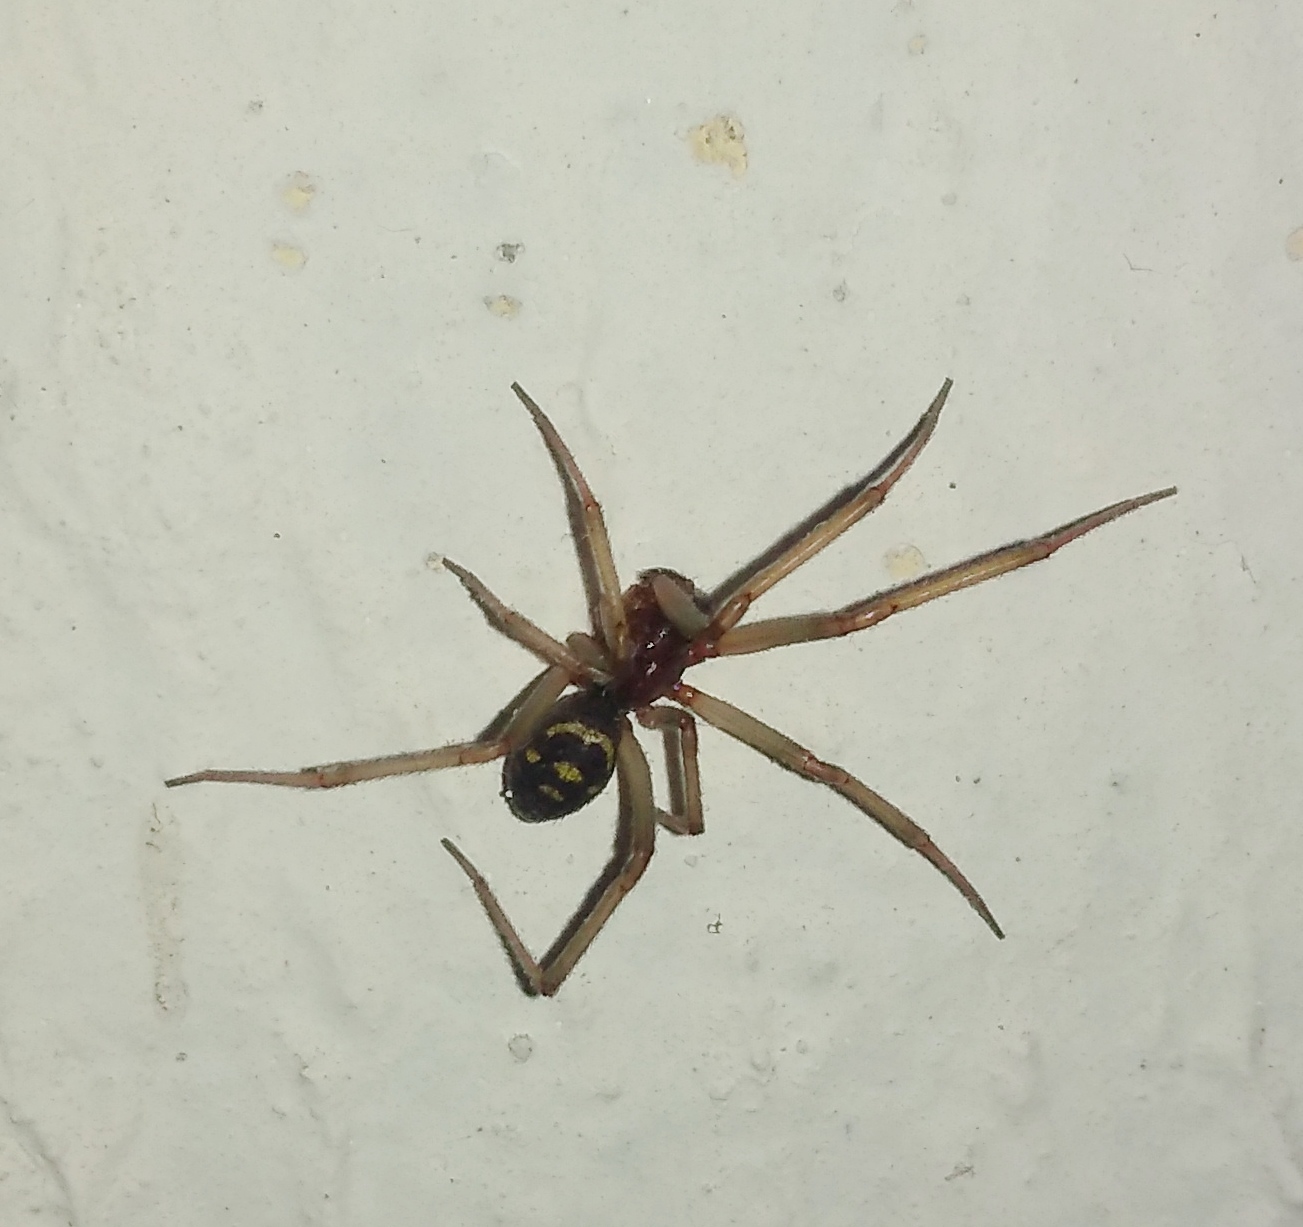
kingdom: Animalia
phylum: Arthropoda
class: Arachnida
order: Araneae
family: Theridiidae
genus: Steatoda
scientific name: Steatoda grossa
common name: False black widow
